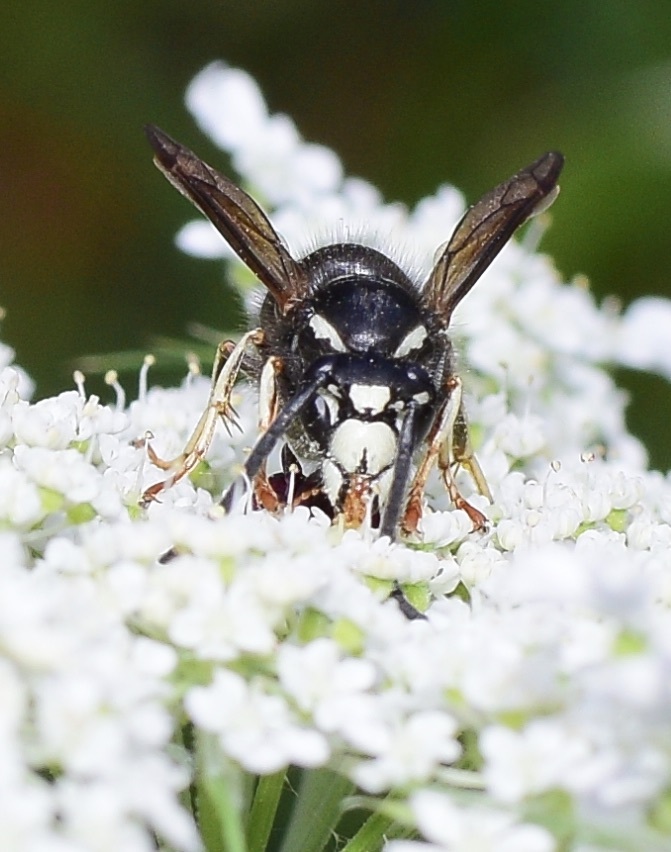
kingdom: Animalia
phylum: Arthropoda
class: Insecta
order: Hymenoptera
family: Vespidae
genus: Vespula
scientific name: Vespula consobrina
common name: Blackjacket
